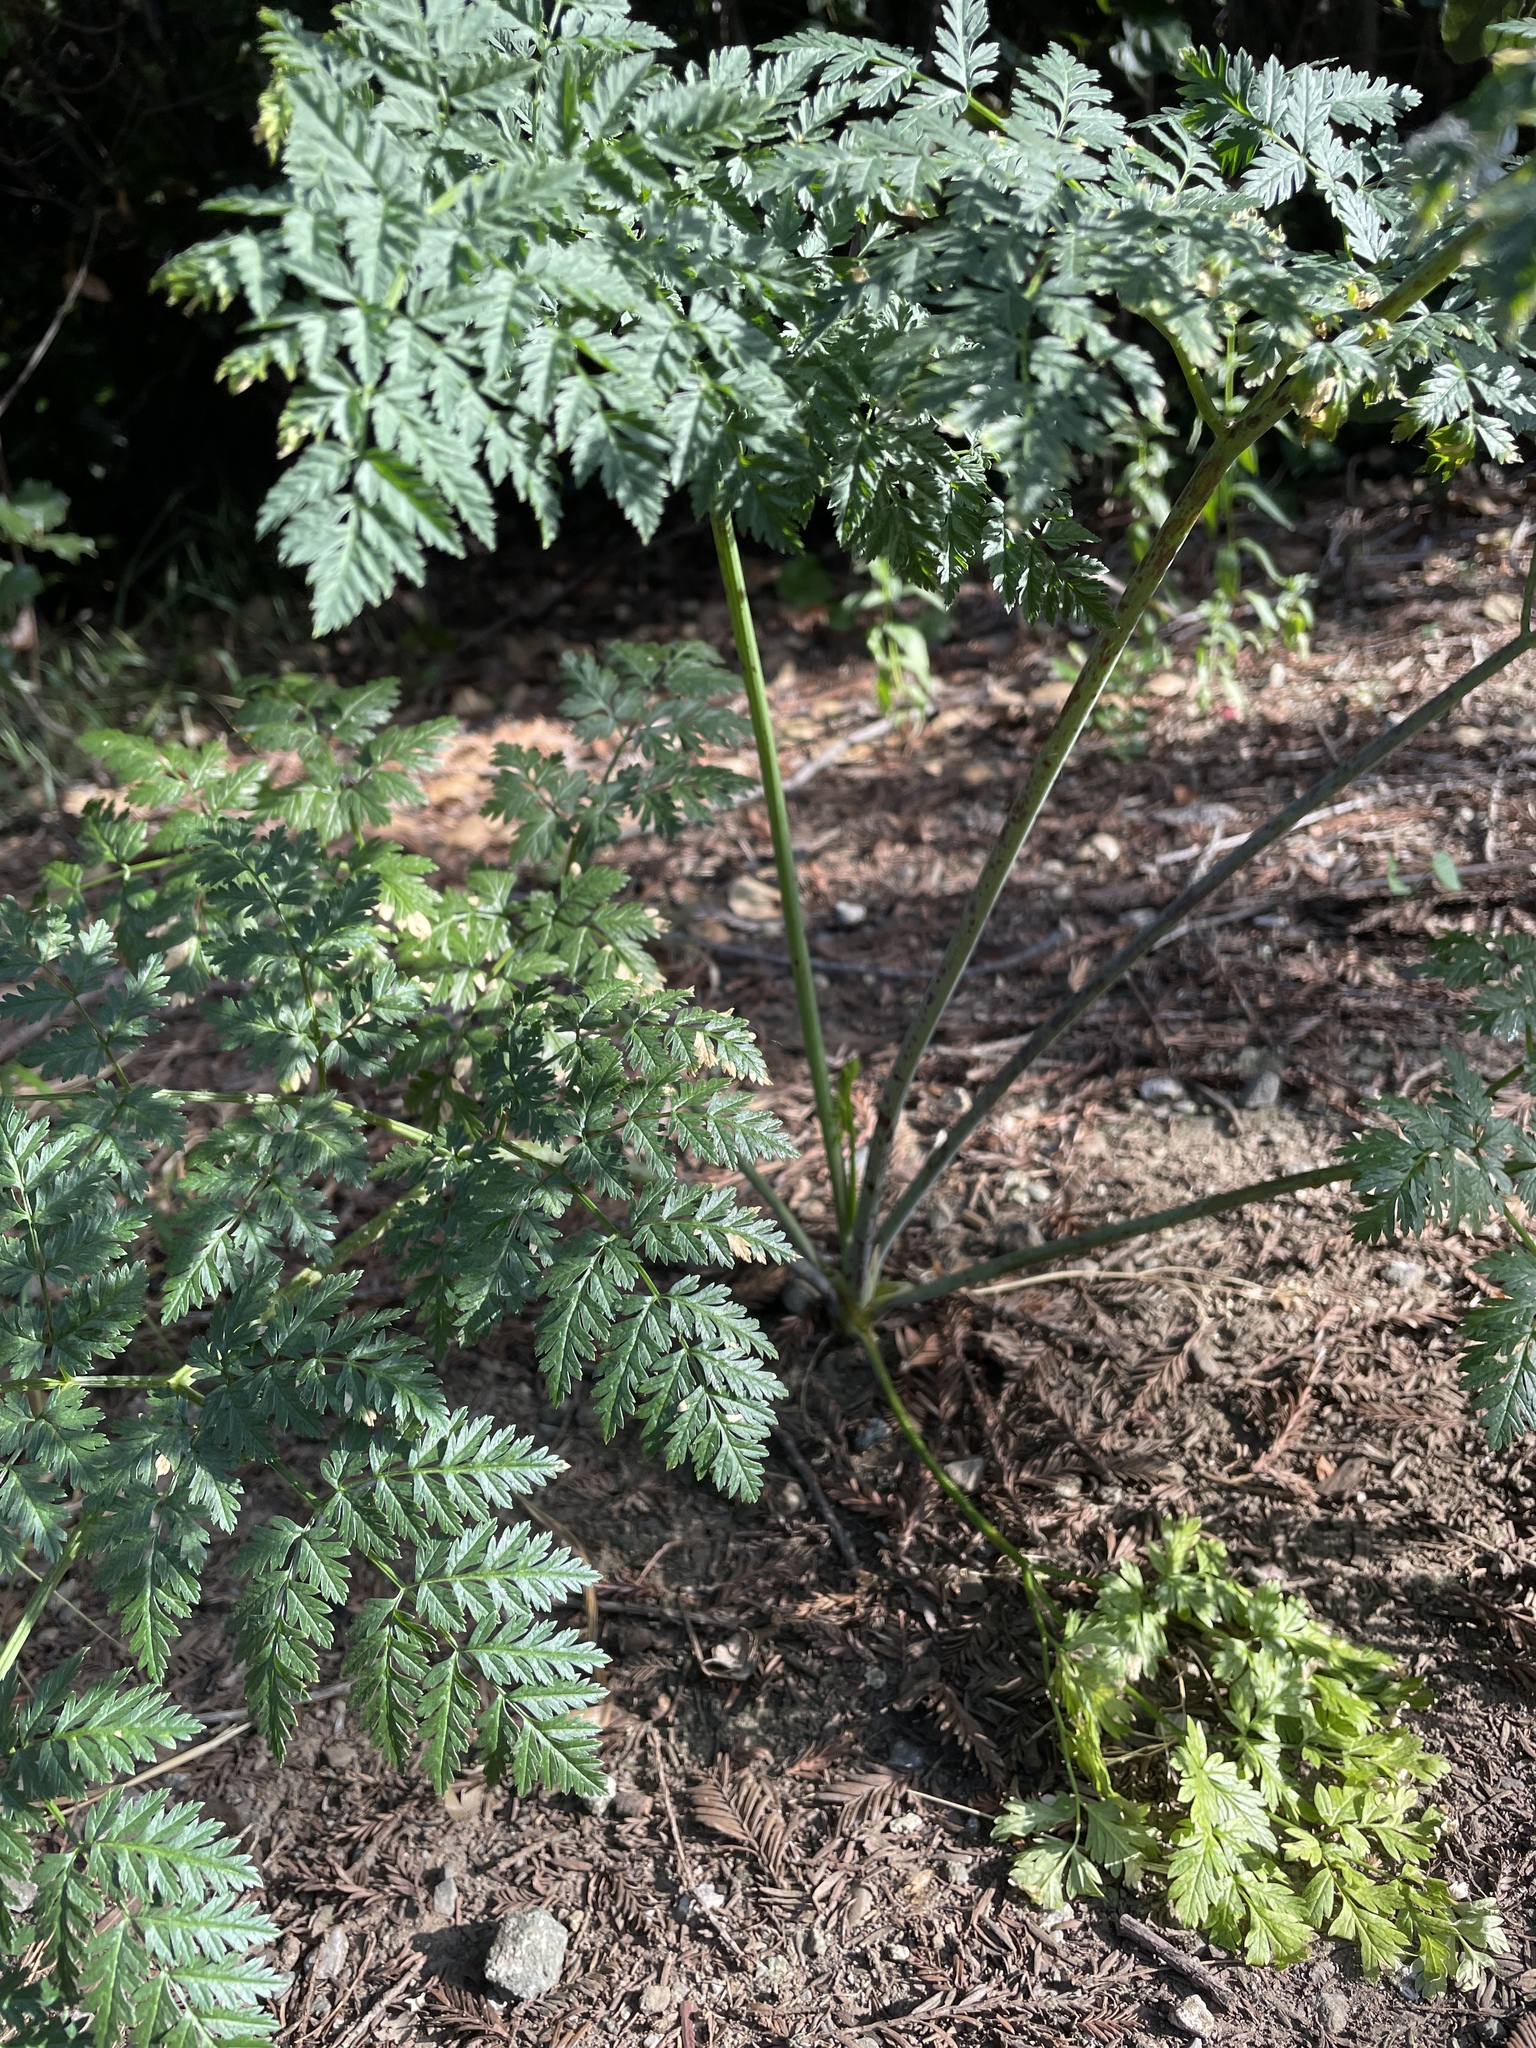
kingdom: Plantae
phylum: Tracheophyta
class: Magnoliopsida
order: Apiales
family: Apiaceae
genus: Conium
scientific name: Conium maculatum
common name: Hemlock
